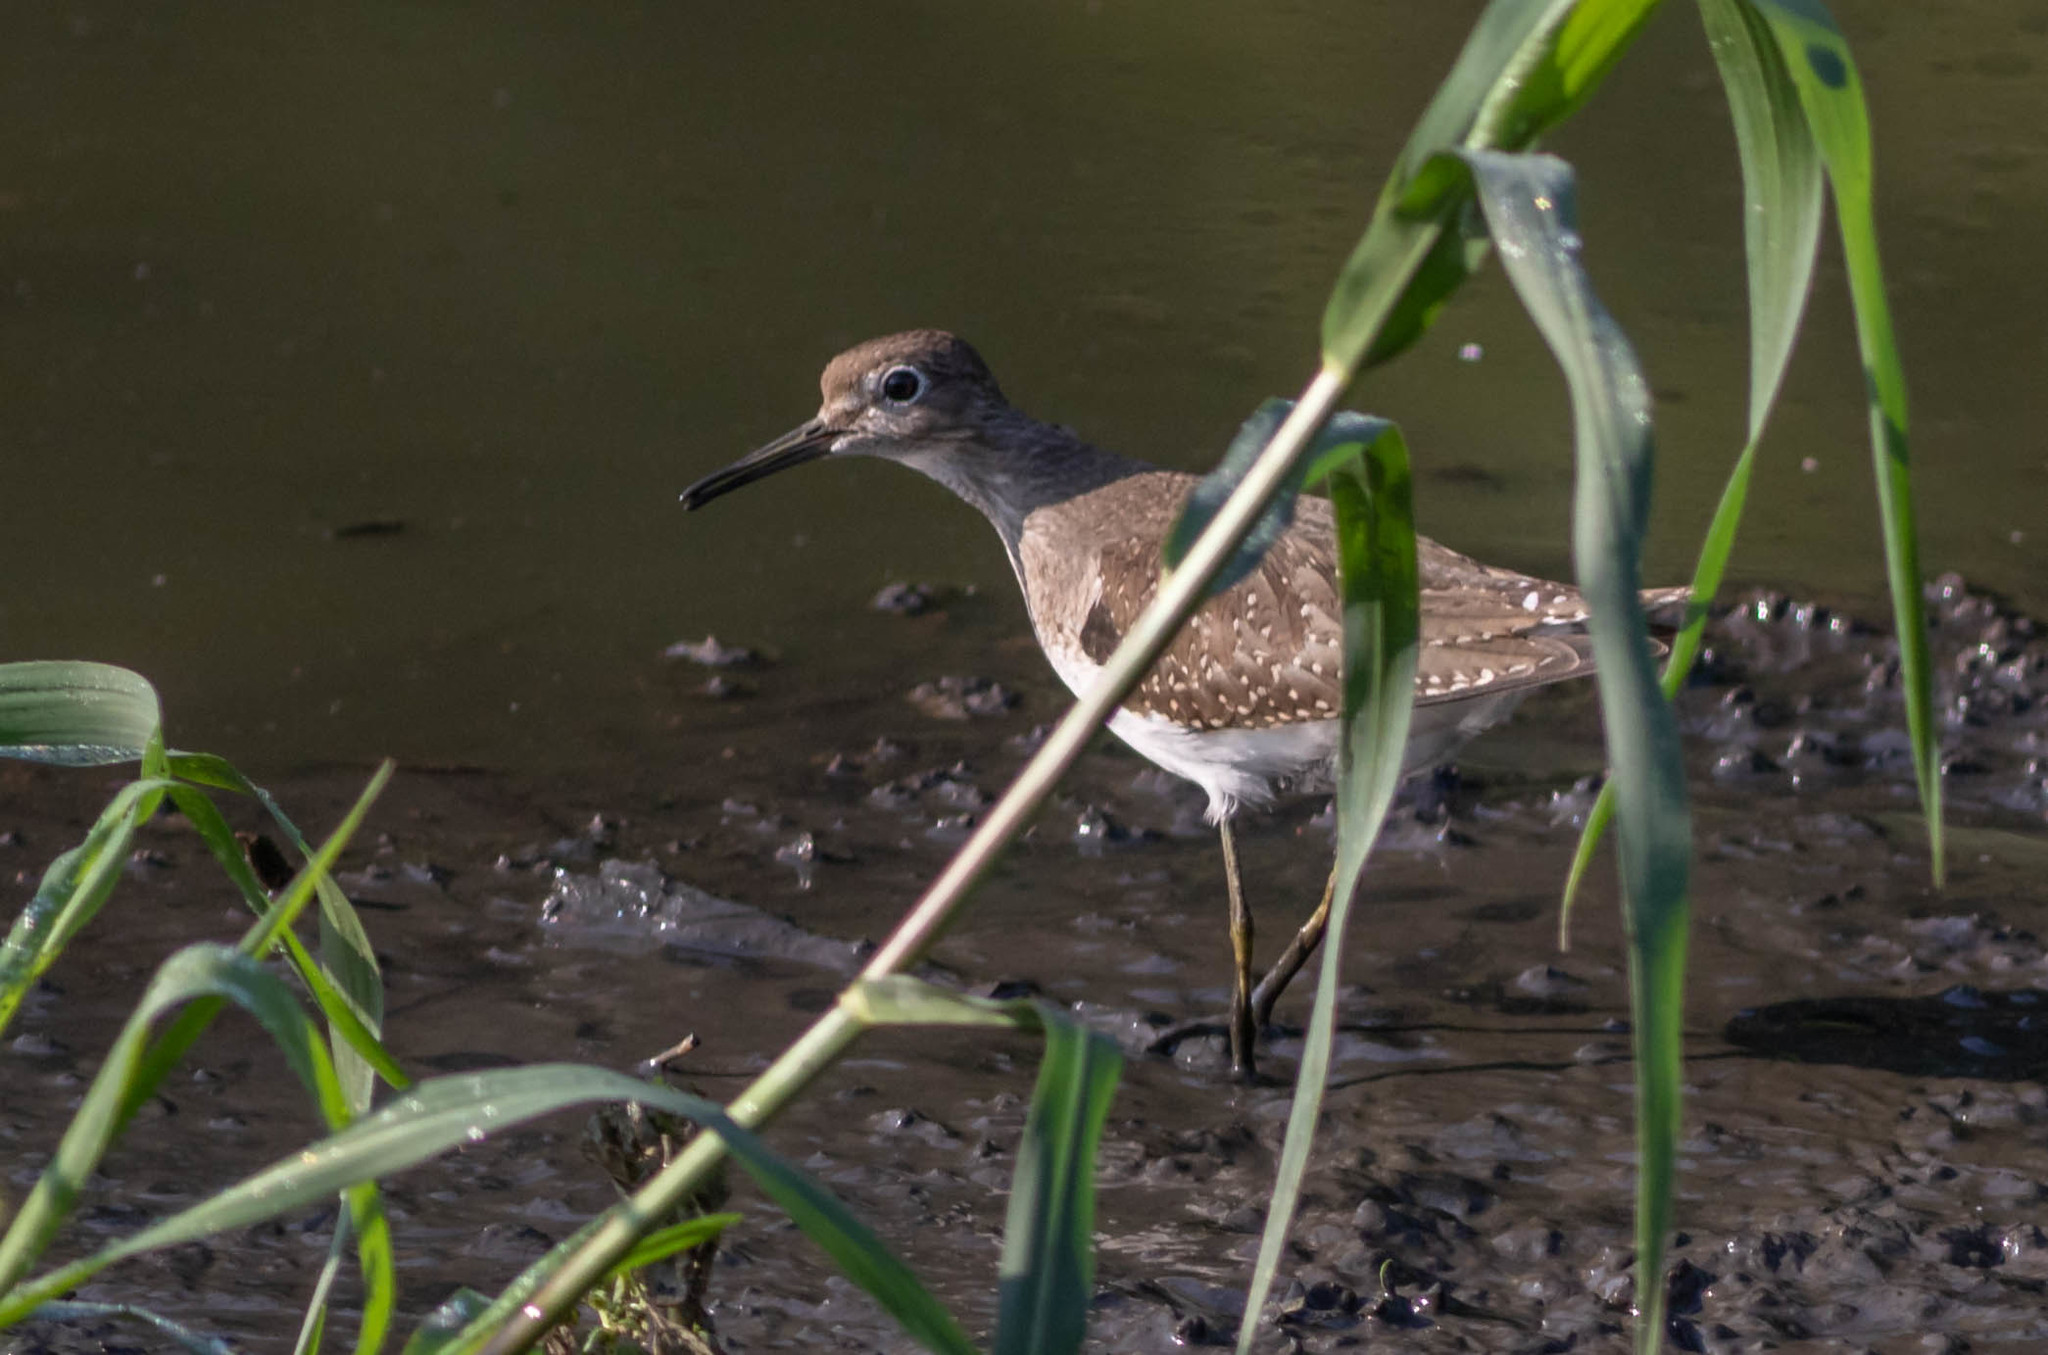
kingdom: Animalia
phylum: Chordata
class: Aves
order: Charadriiformes
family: Scolopacidae
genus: Tringa
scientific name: Tringa solitaria
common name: Solitary sandpiper
